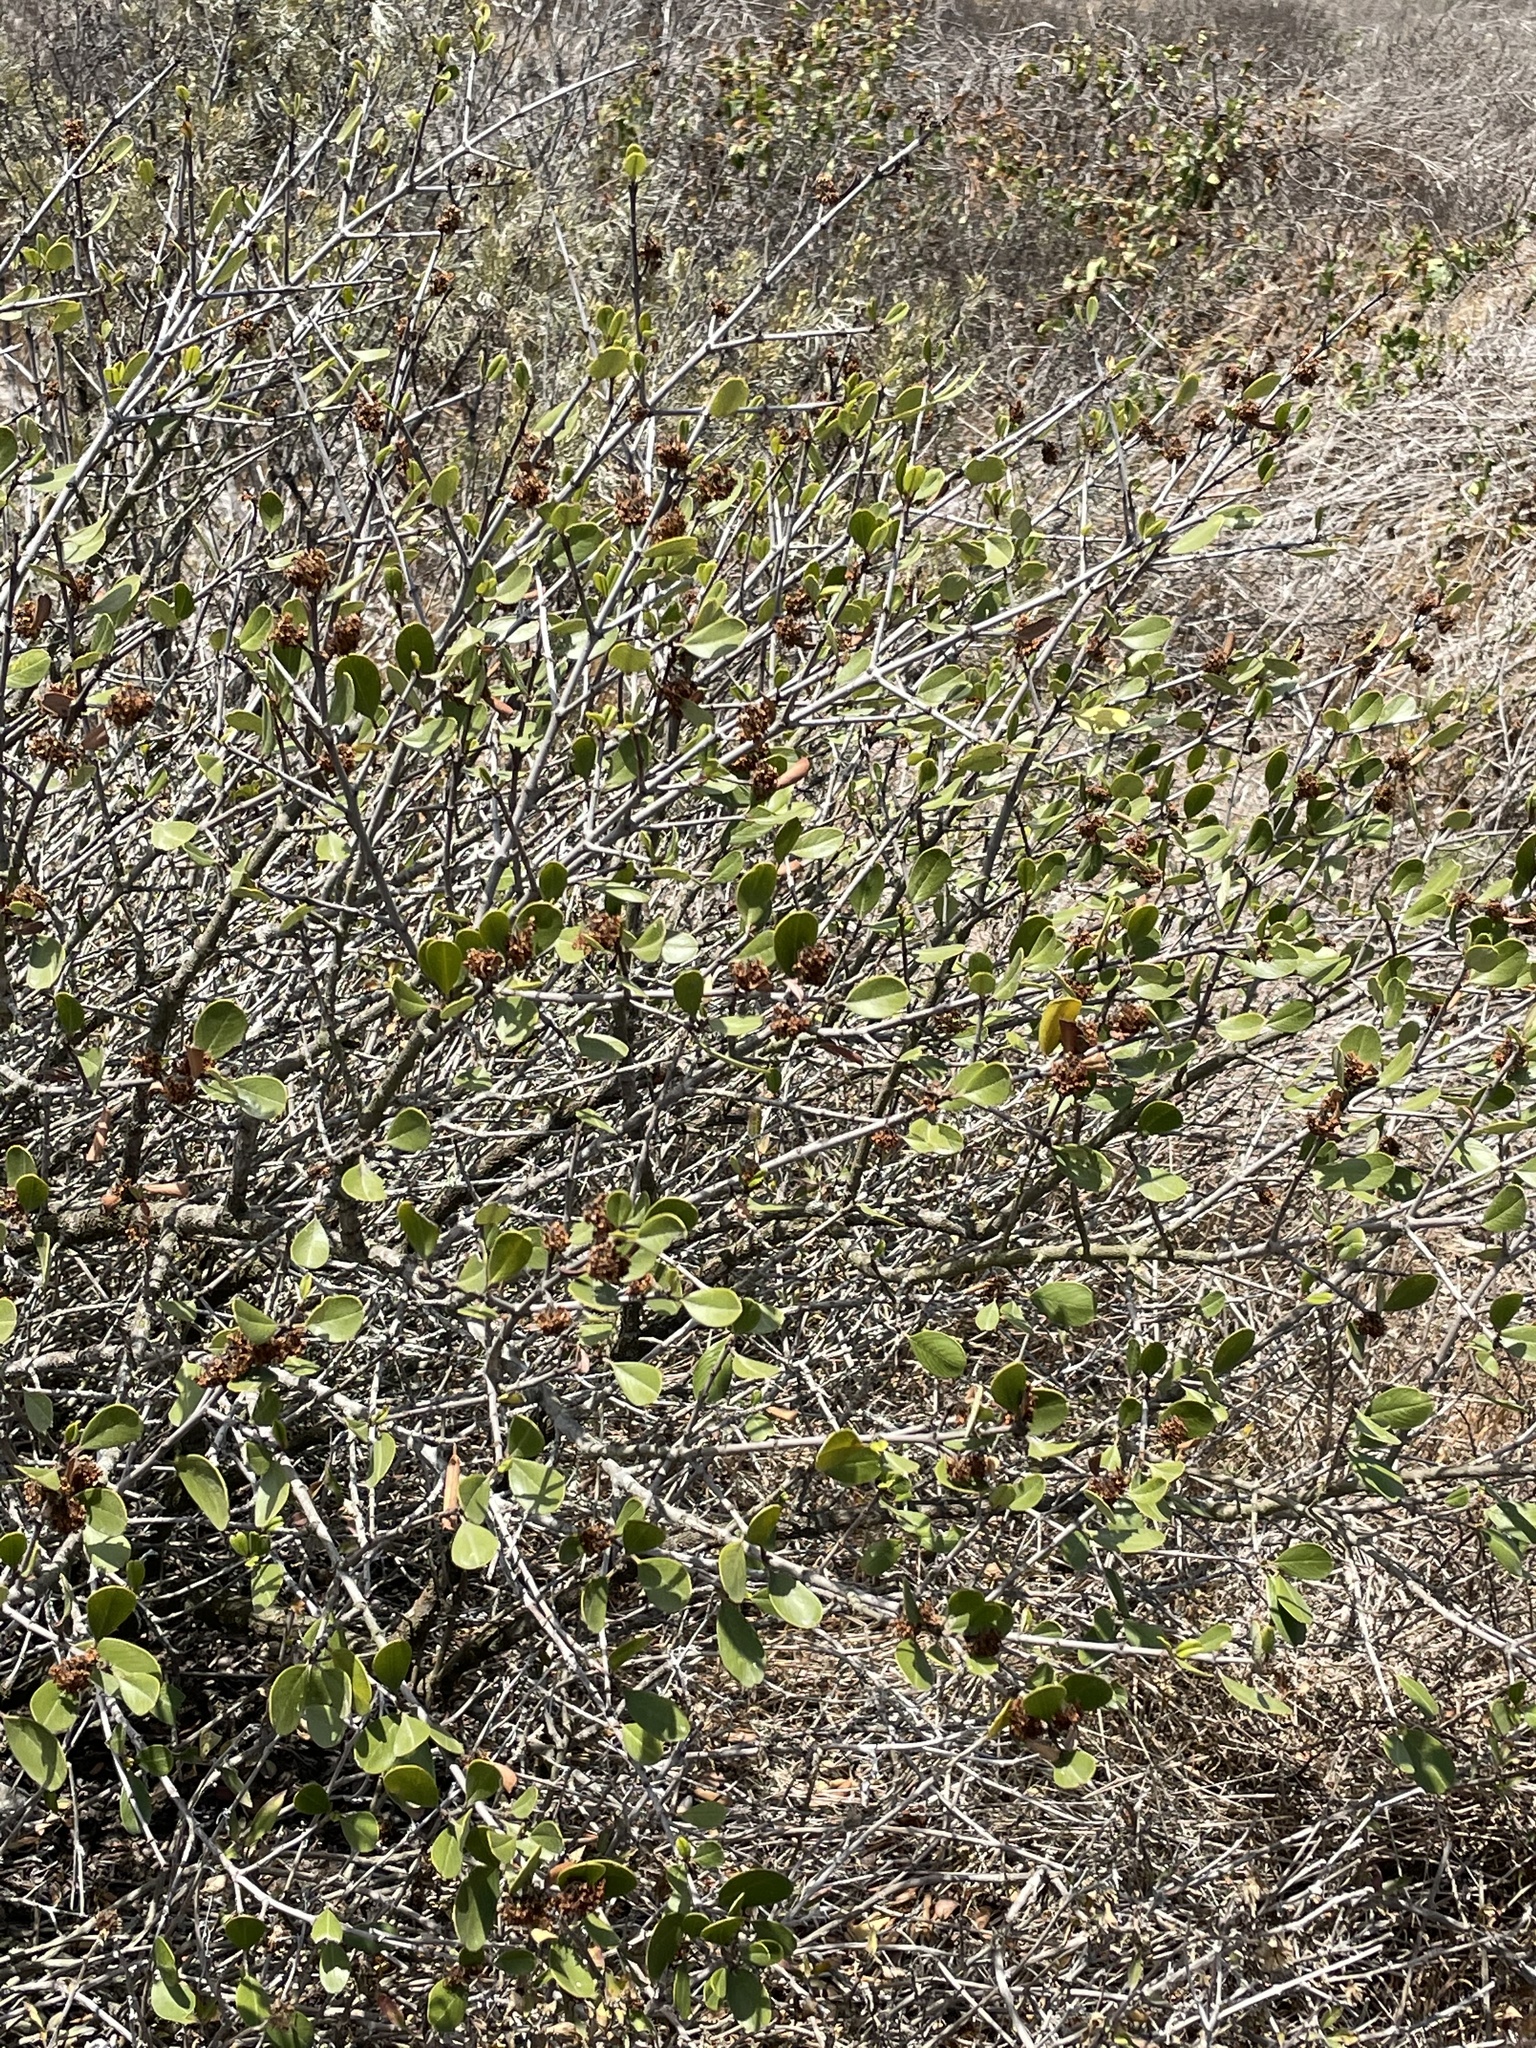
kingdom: Plantae
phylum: Tracheophyta
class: Magnoliopsida
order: Rosales
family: Rhamnaceae
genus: Ceanothus
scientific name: Ceanothus megacarpus
